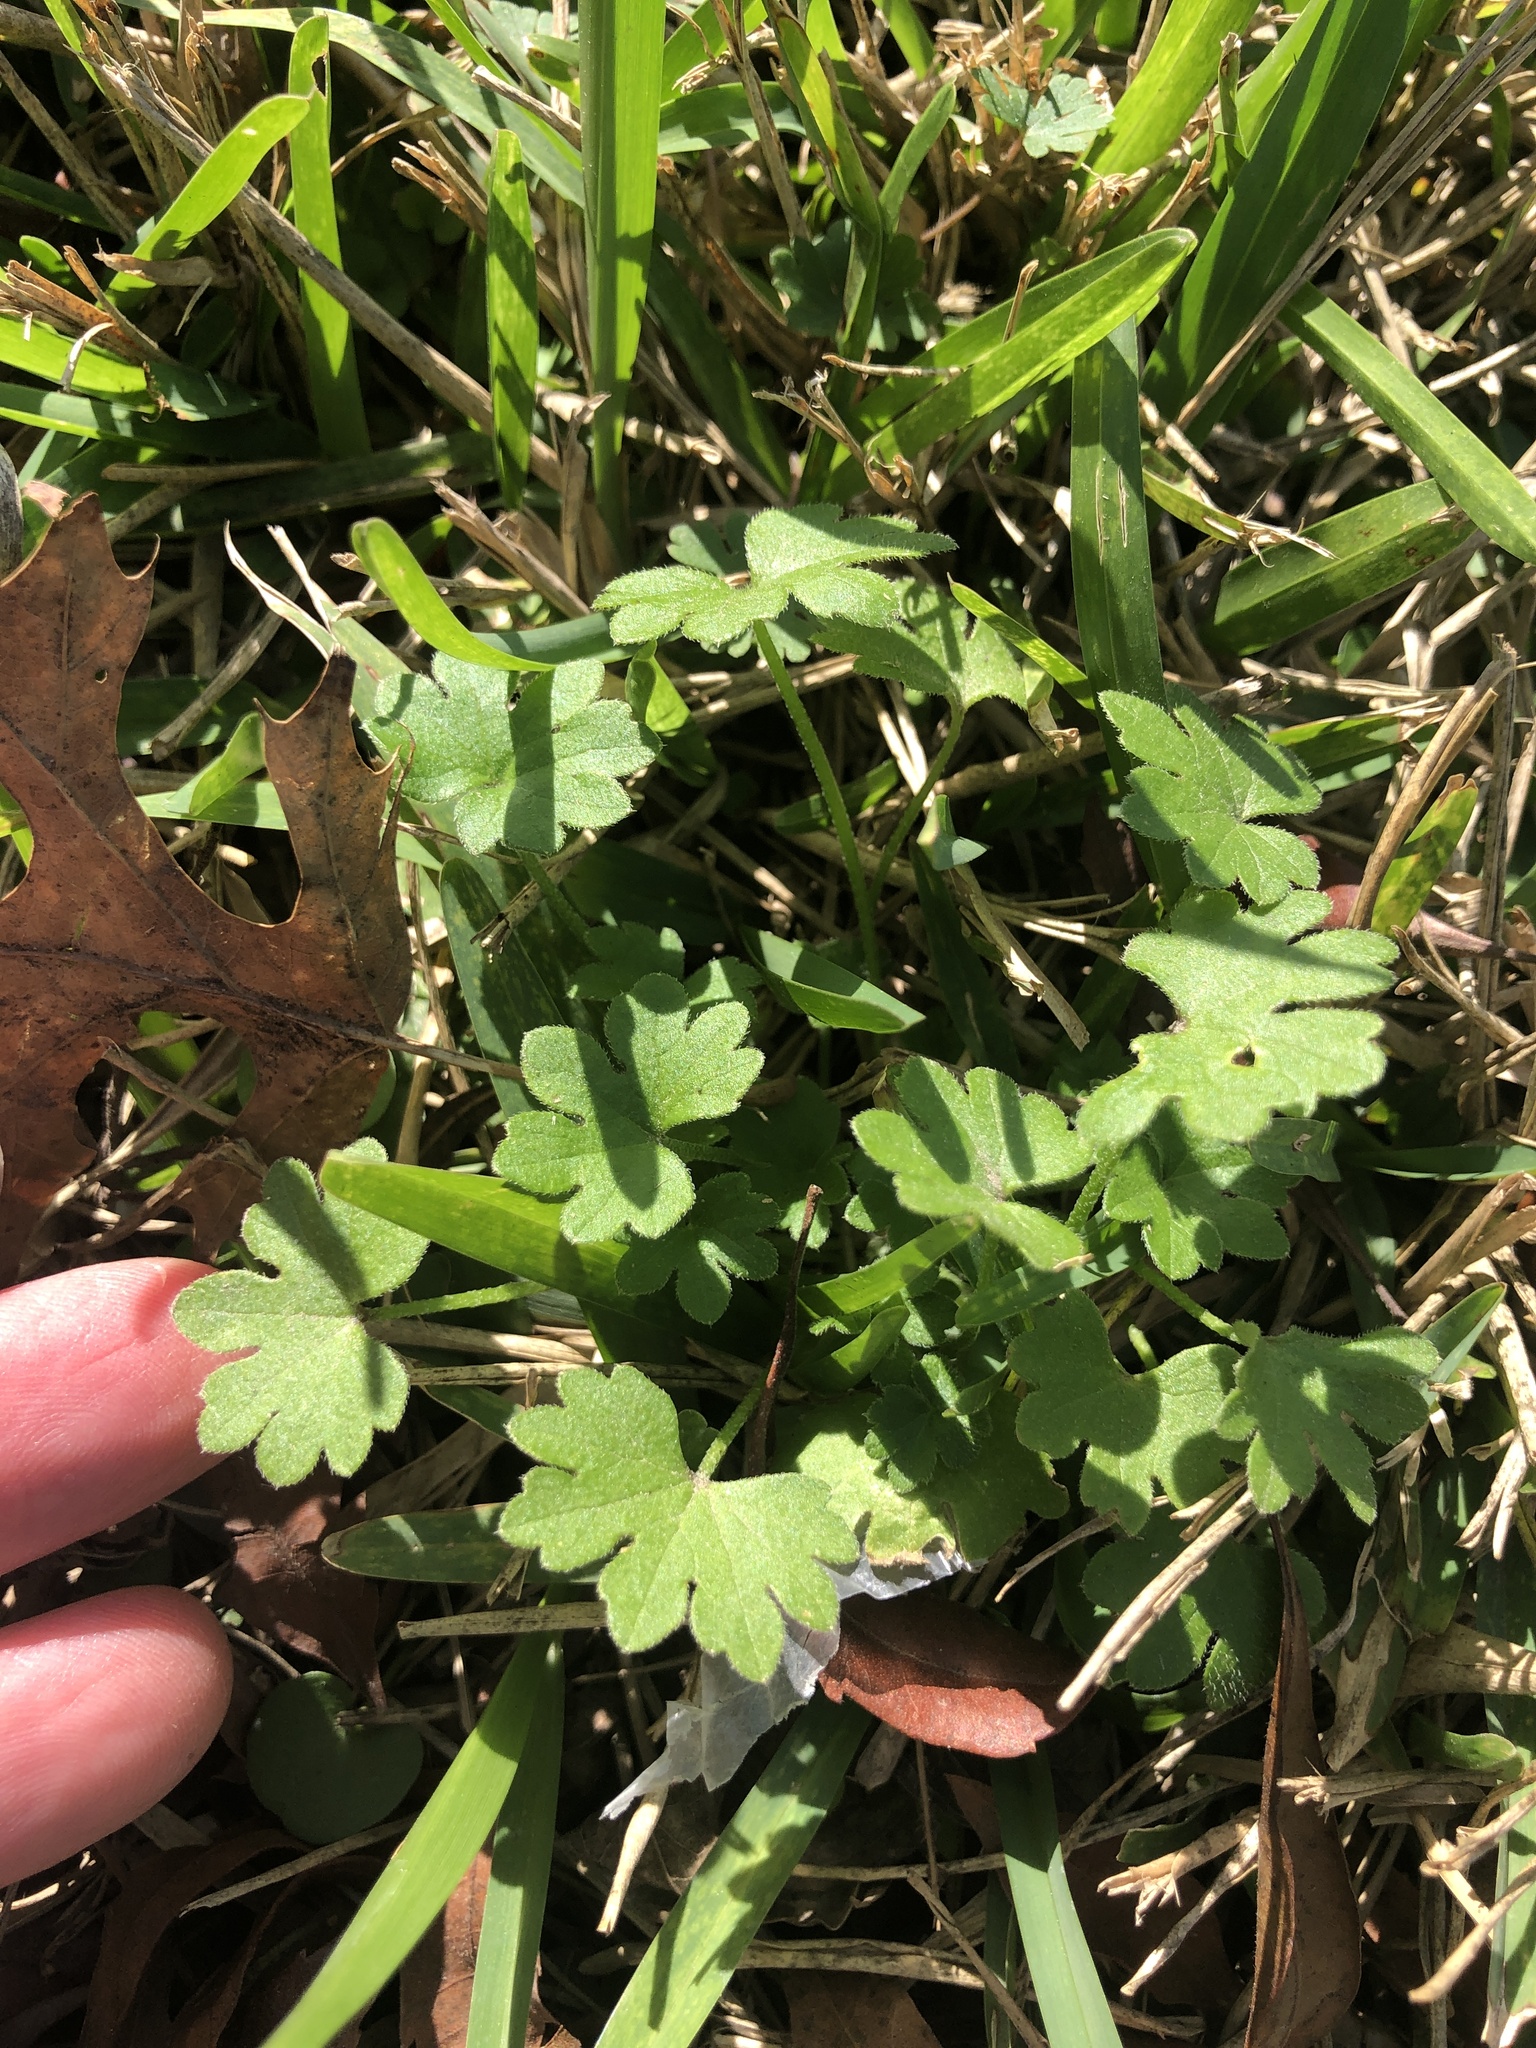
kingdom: Plantae
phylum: Tracheophyta
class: Magnoliopsida
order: Apiales
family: Apiaceae
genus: Bowlesia
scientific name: Bowlesia incana
